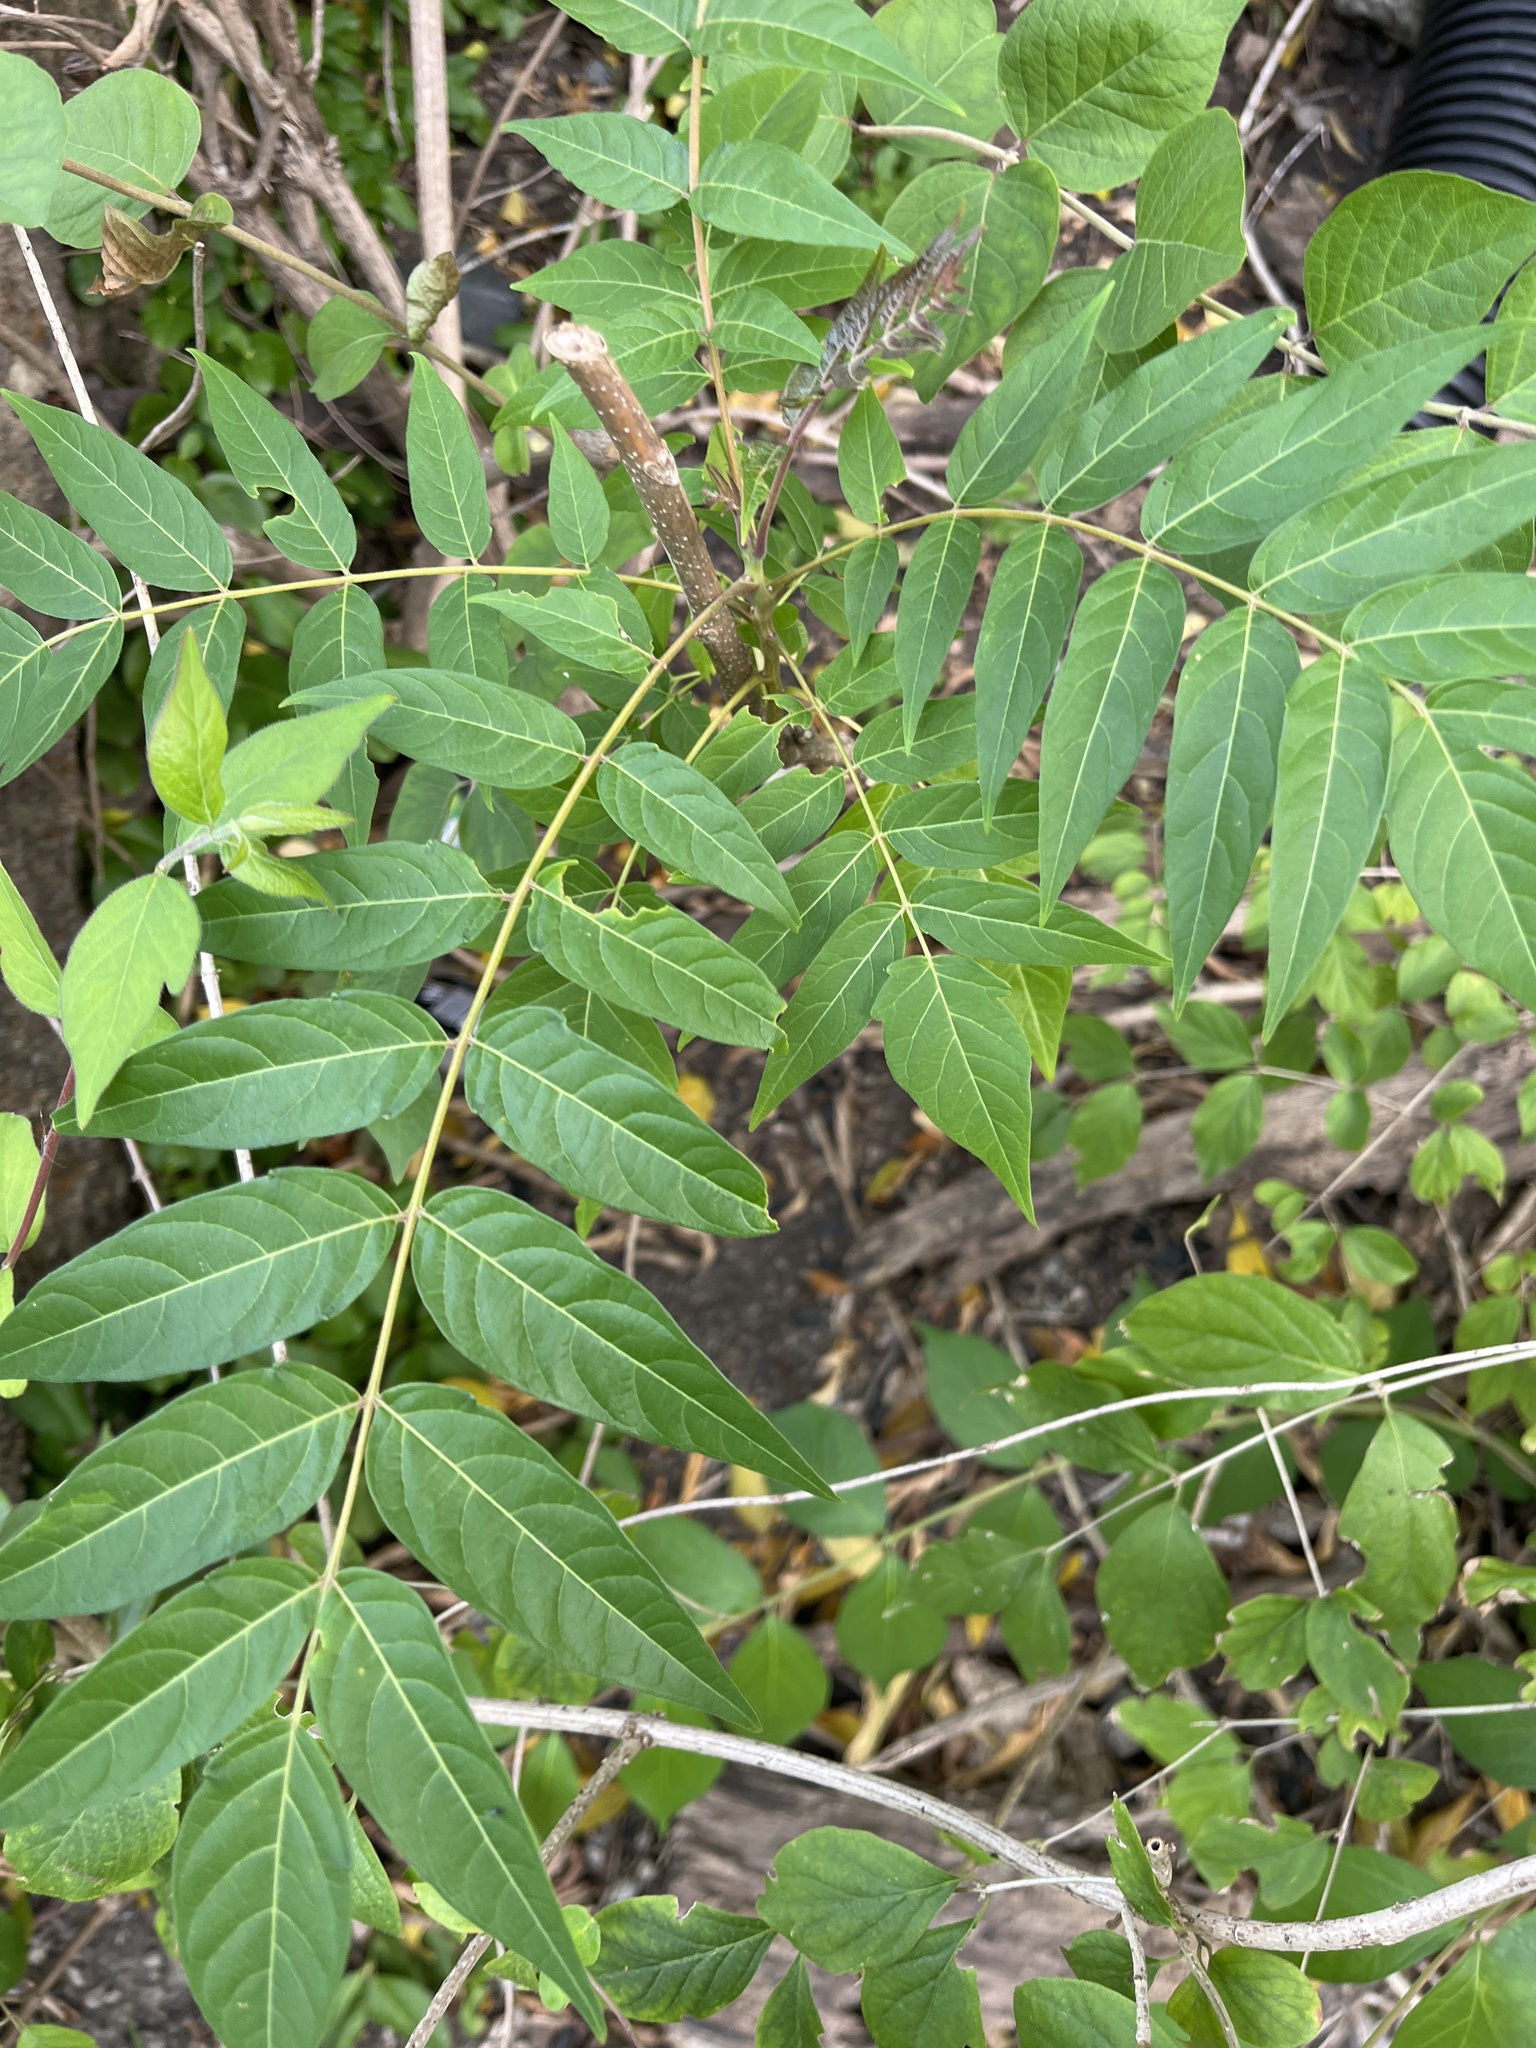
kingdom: Plantae
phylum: Tracheophyta
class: Magnoliopsida
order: Sapindales
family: Simaroubaceae
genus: Ailanthus
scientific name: Ailanthus altissima
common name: Tree-of-heaven
